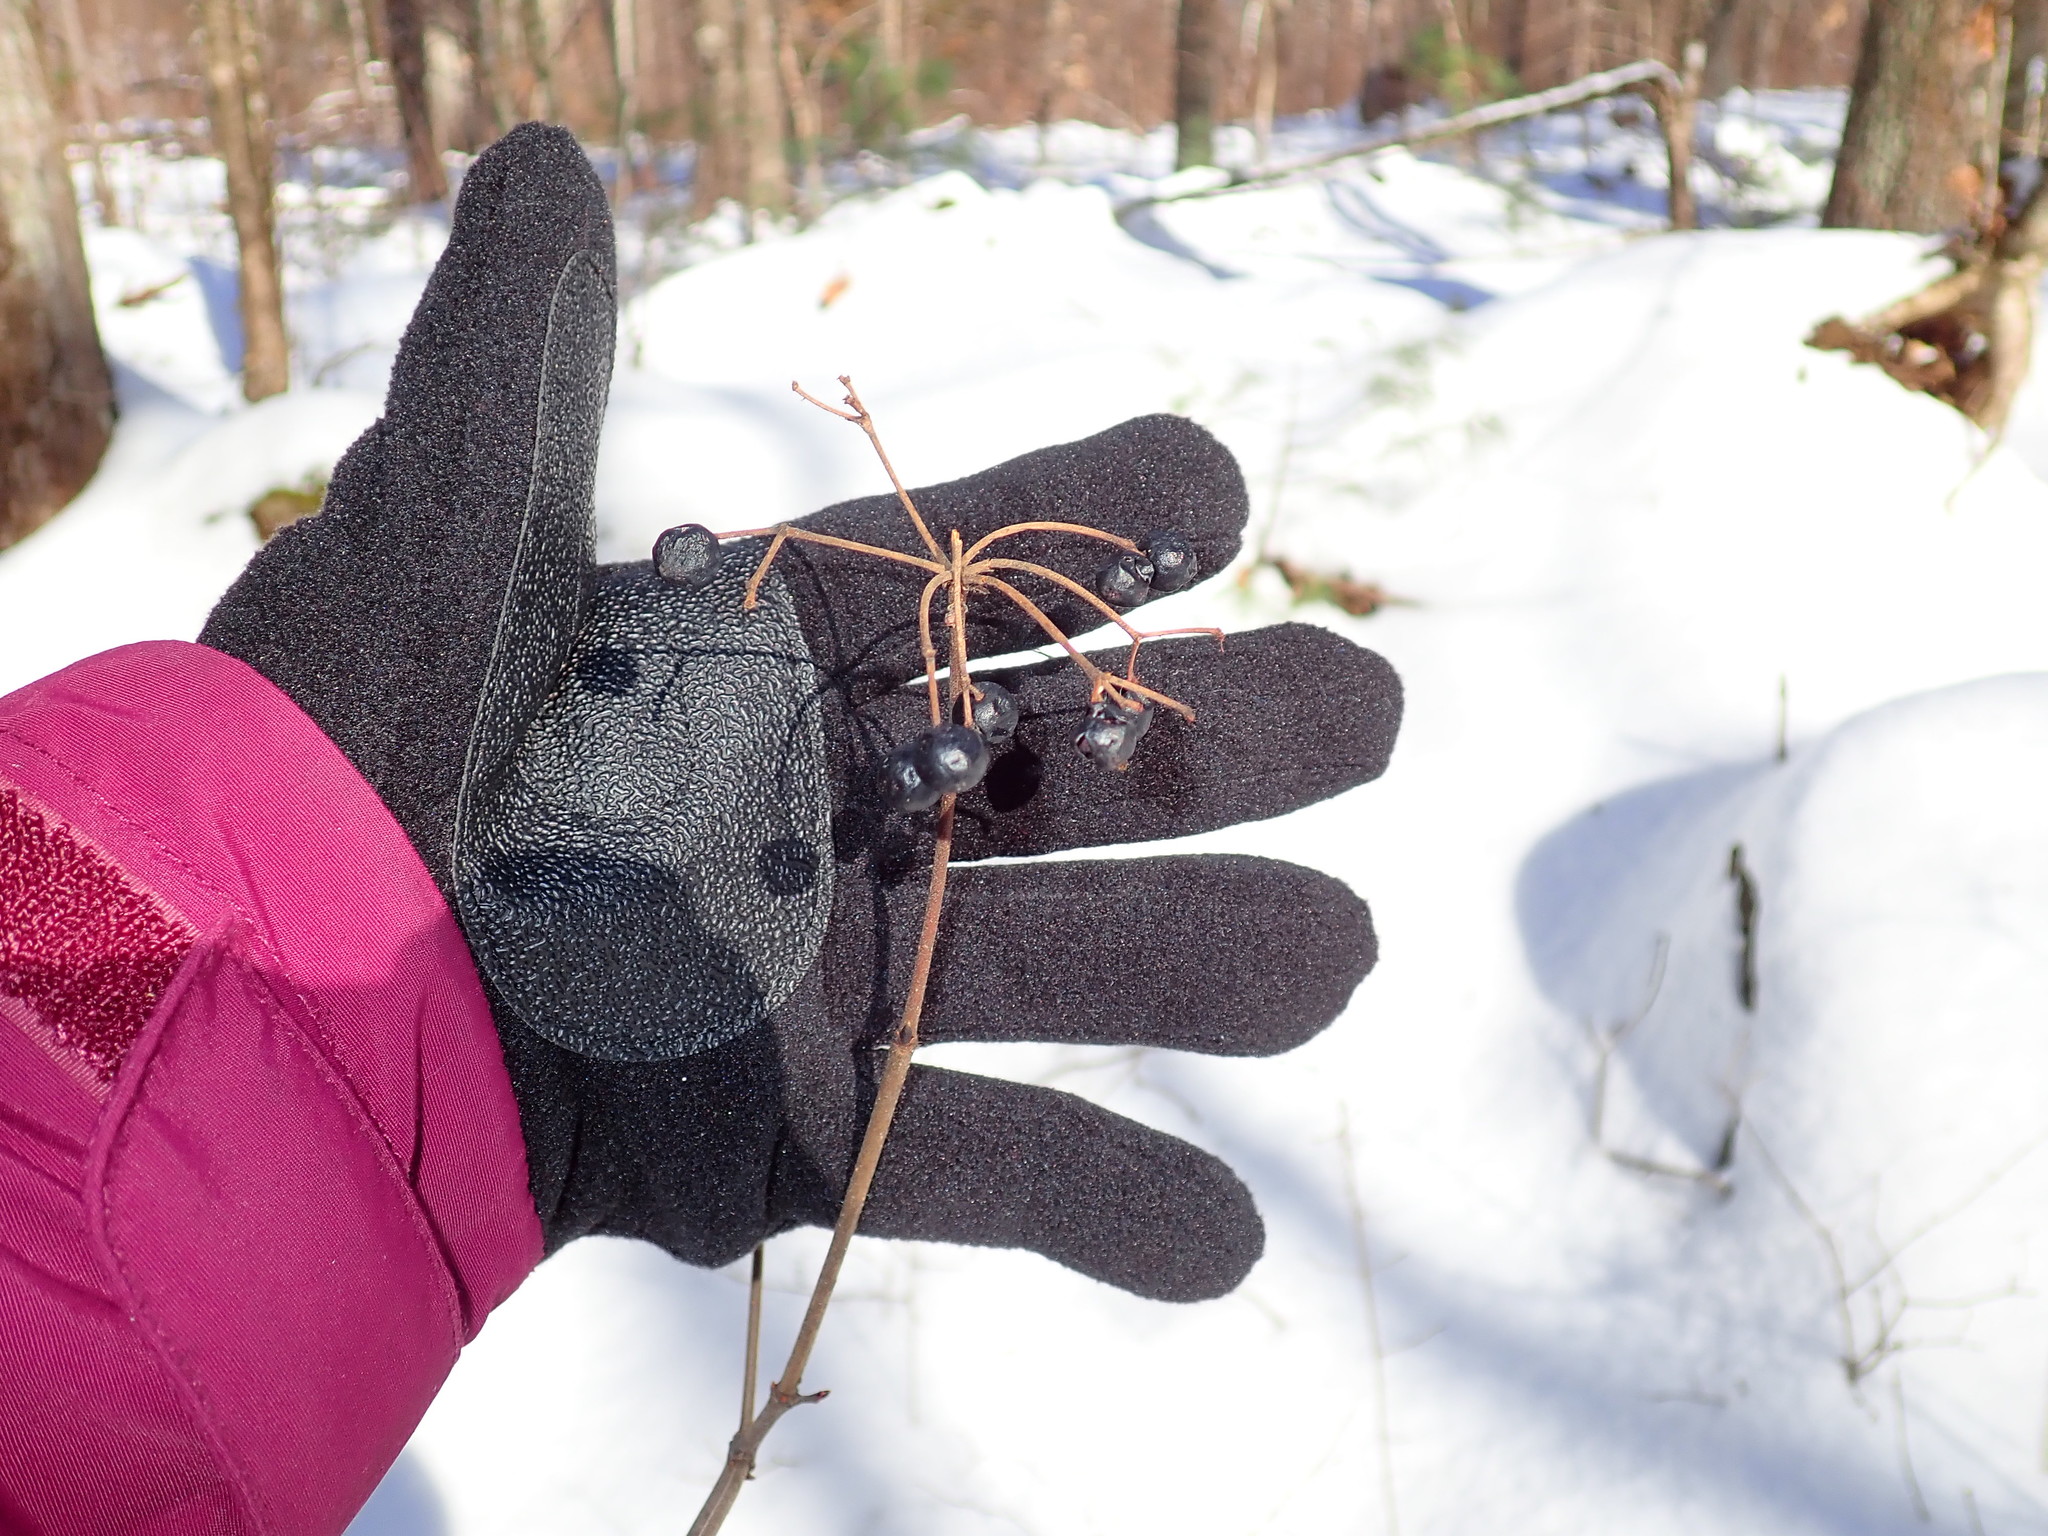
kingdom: Plantae
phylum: Tracheophyta
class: Magnoliopsida
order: Dipsacales
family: Viburnaceae
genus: Viburnum
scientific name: Viburnum acerifolium
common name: Dockmackie
